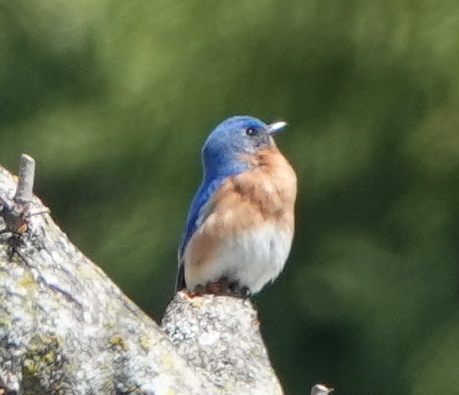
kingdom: Animalia
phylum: Chordata
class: Aves
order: Passeriformes
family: Turdidae
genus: Sialia
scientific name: Sialia sialis
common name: Eastern bluebird
